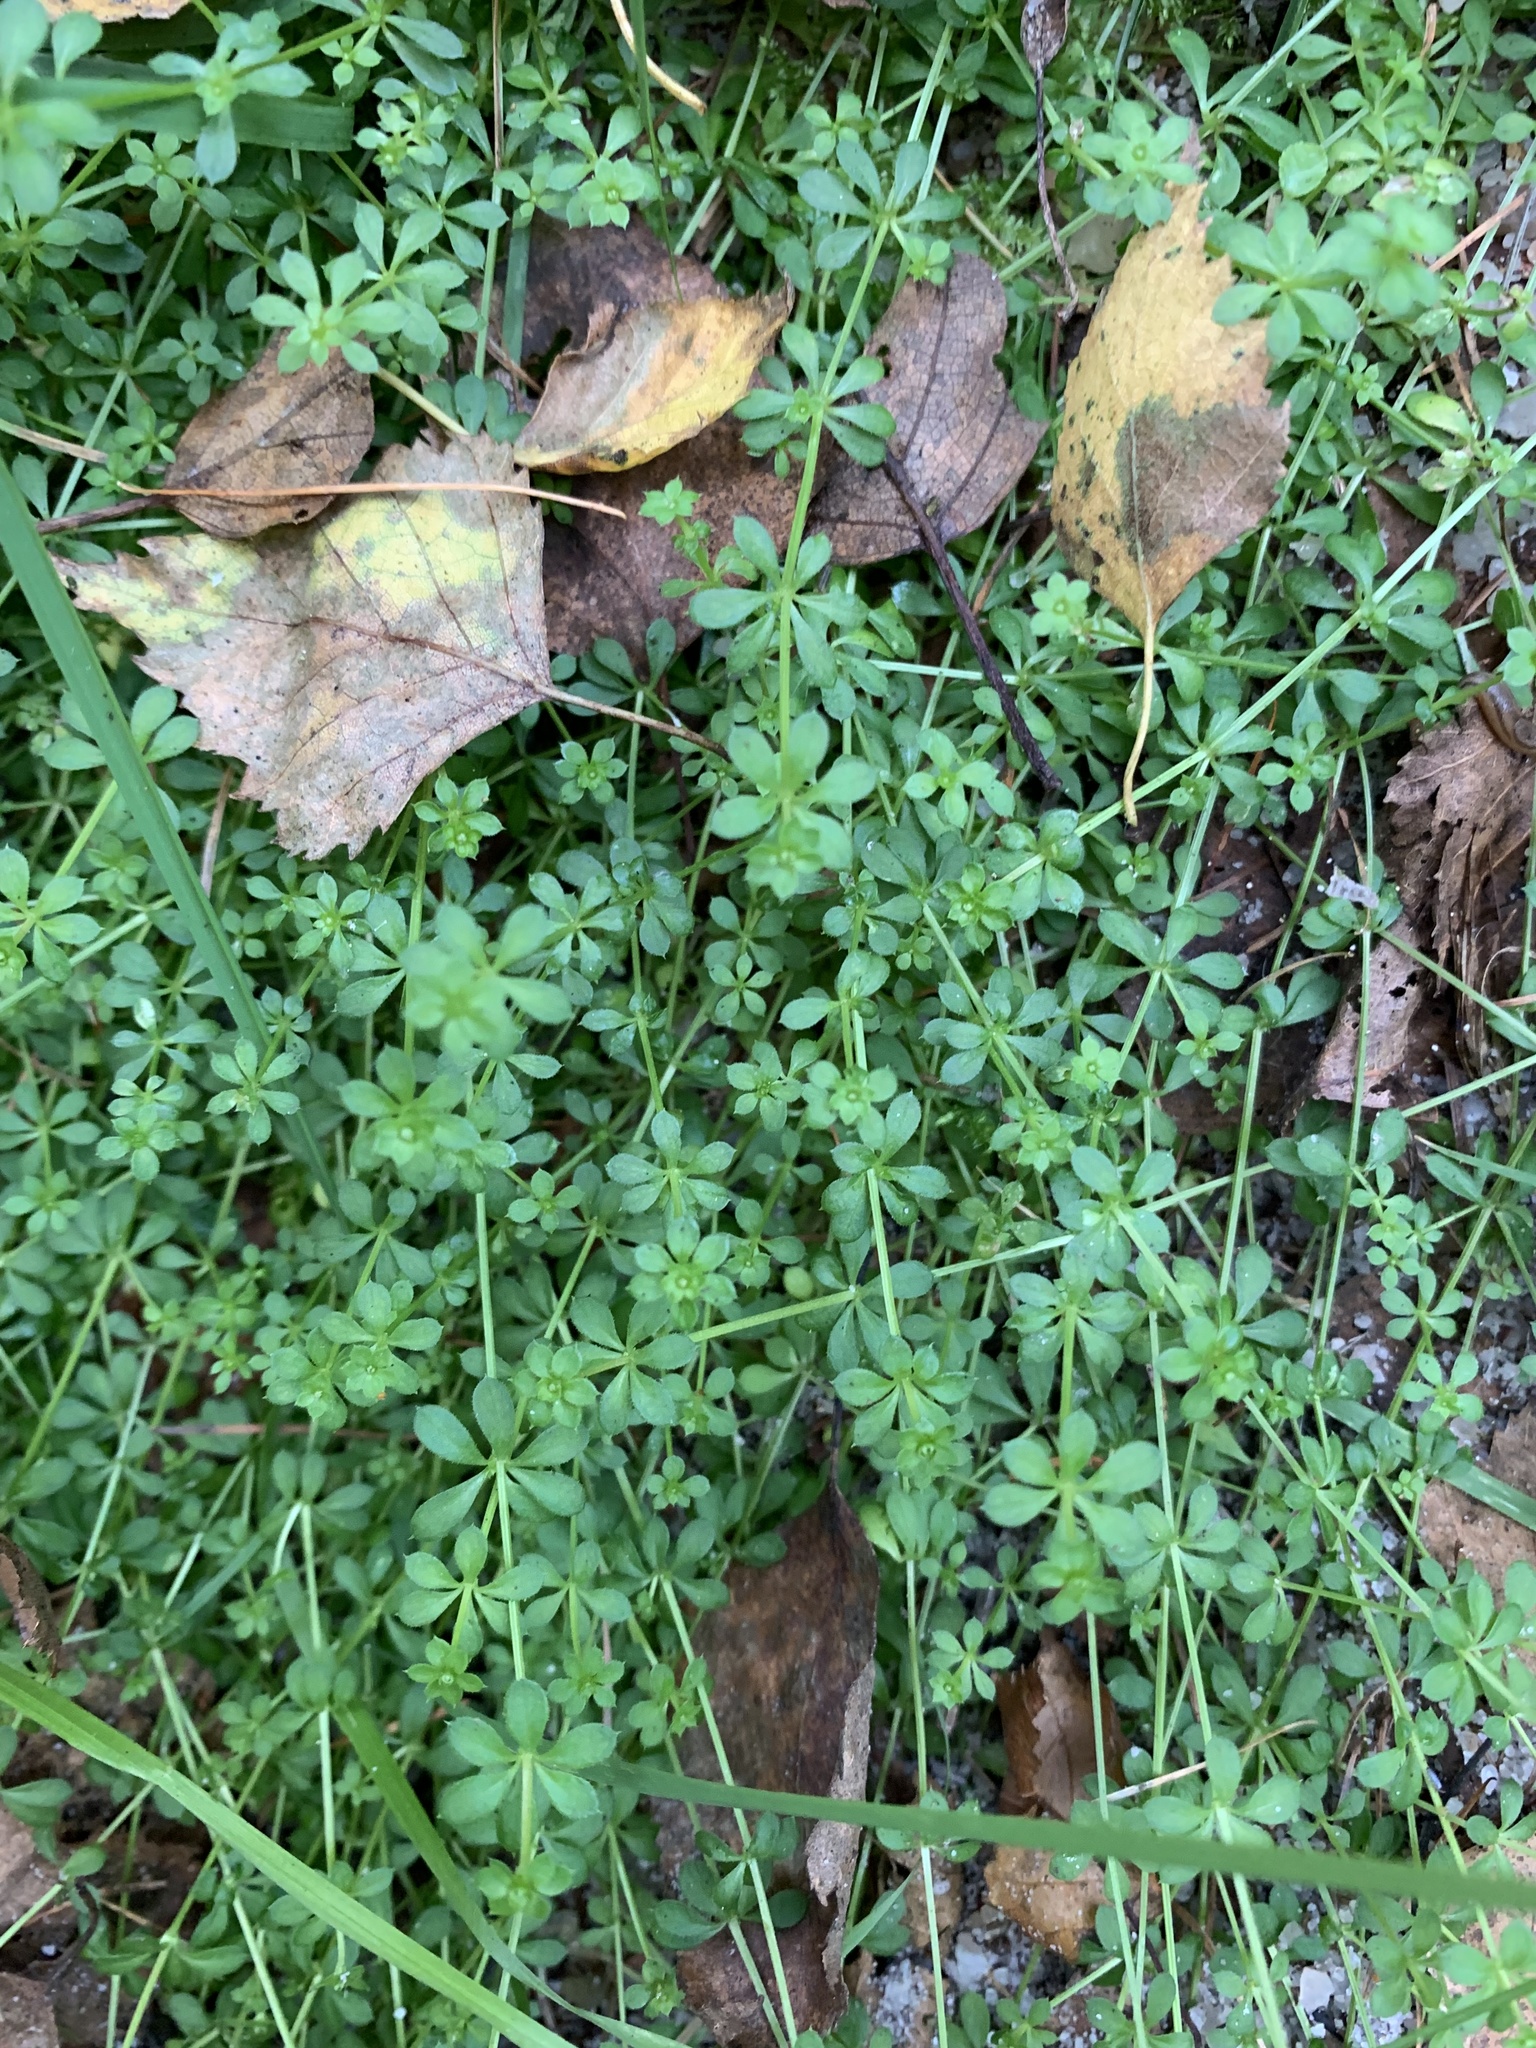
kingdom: Plantae
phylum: Tracheophyta
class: Magnoliopsida
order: Gentianales
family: Rubiaceae
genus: Galium
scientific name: Galium saxatile
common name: Heath bedstraw
